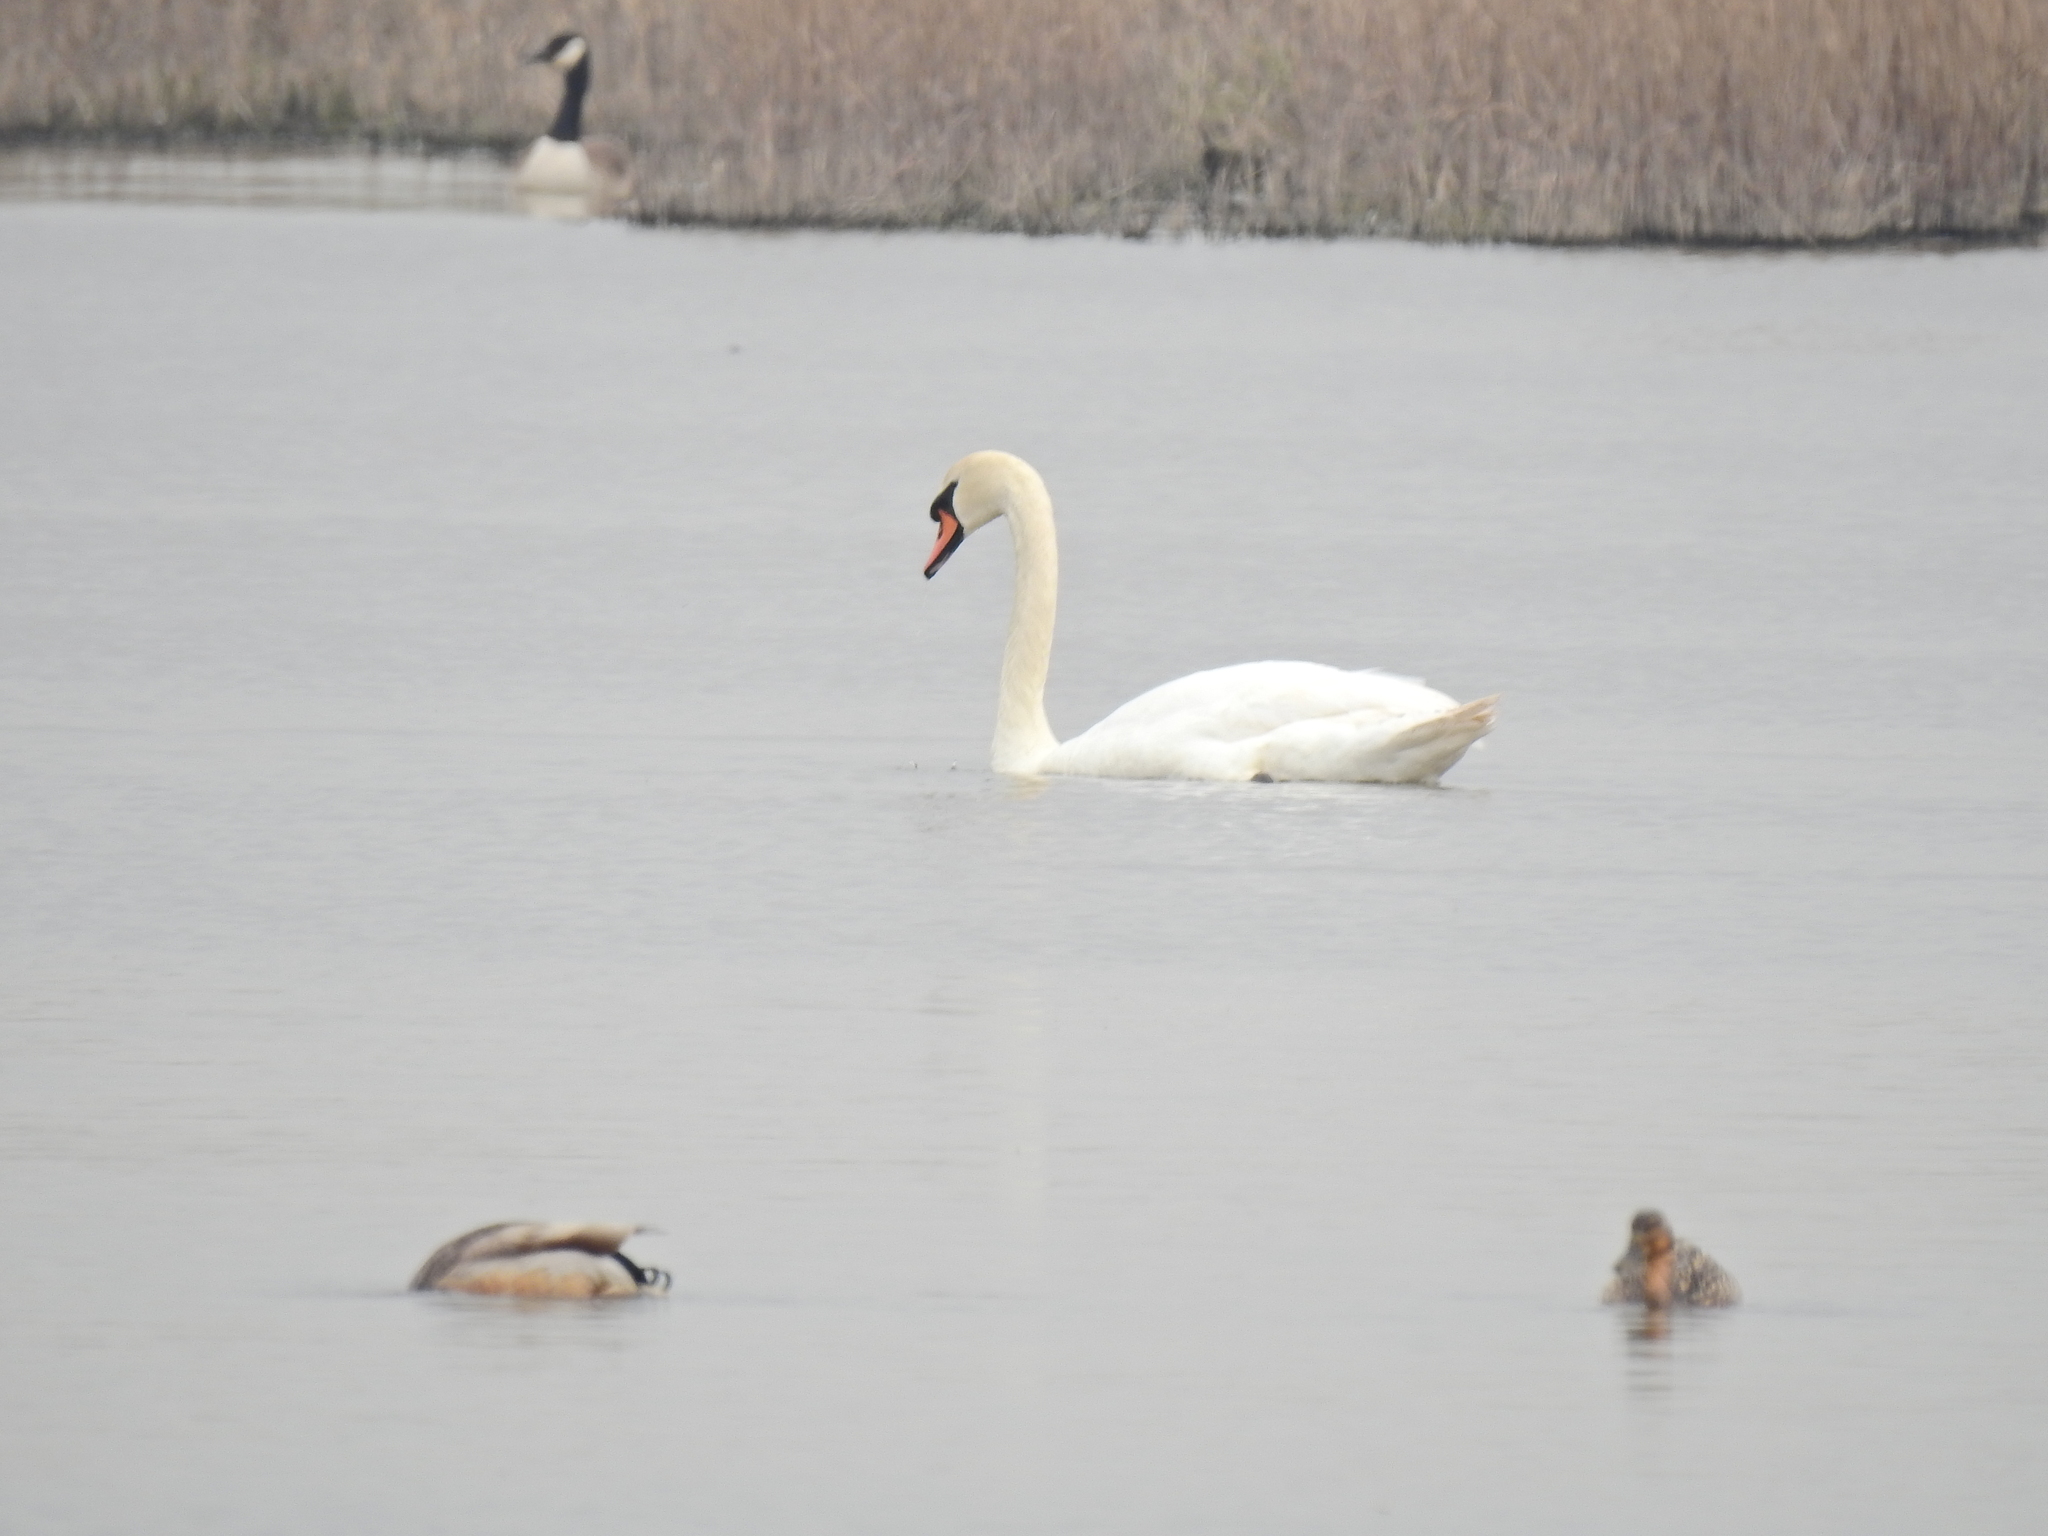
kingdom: Animalia
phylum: Chordata
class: Aves
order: Anseriformes
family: Anatidae
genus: Cygnus
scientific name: Cygnus olor
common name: Mute swan
